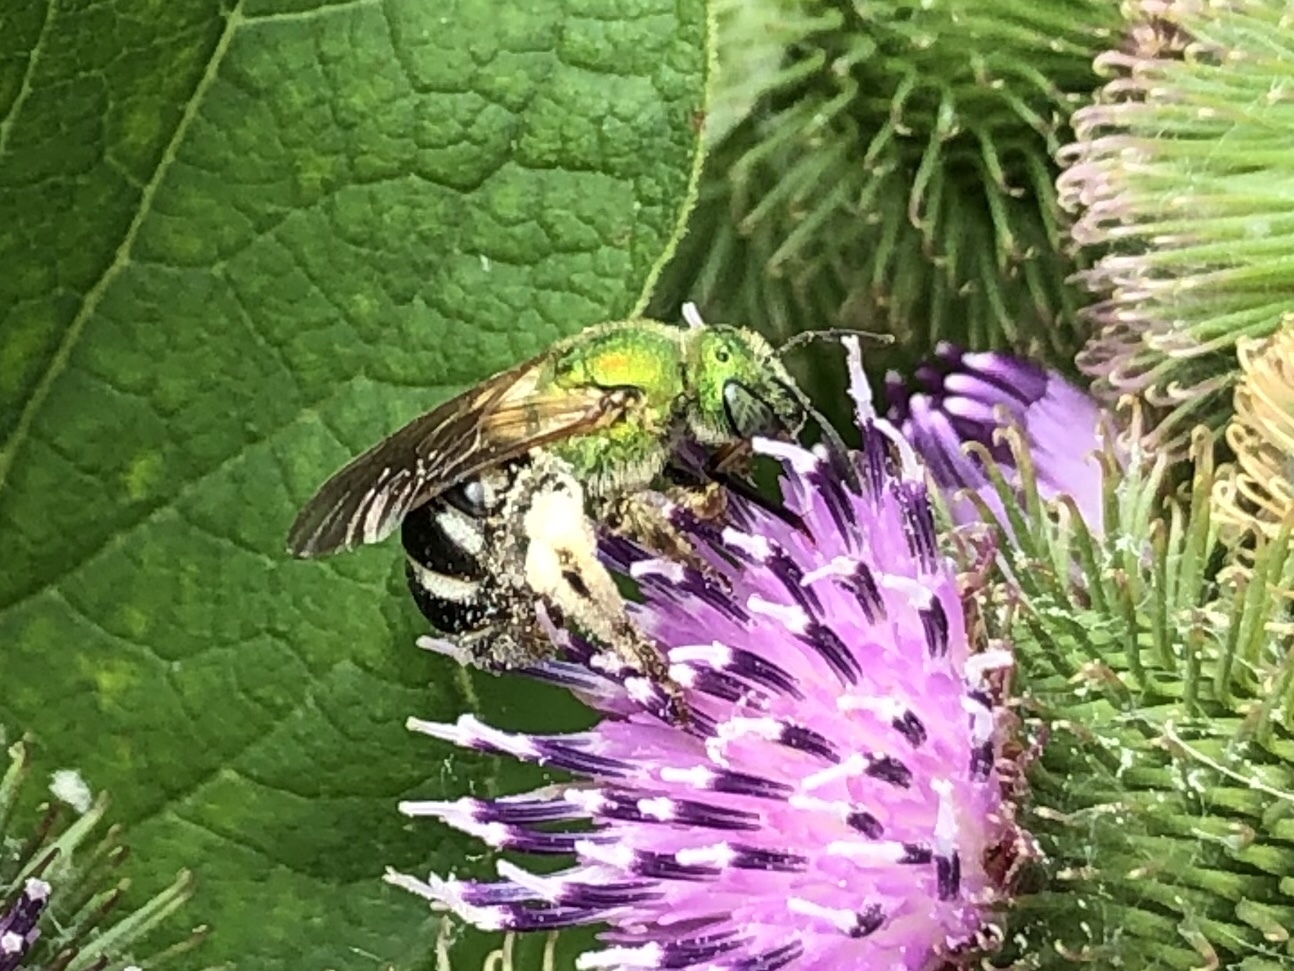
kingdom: Animalia
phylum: Arthropoda
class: Insecta
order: Hymenoptera
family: Halictidae
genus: Agapostemon
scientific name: Agapostemon virescens
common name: Bicolored striped sweat bee
